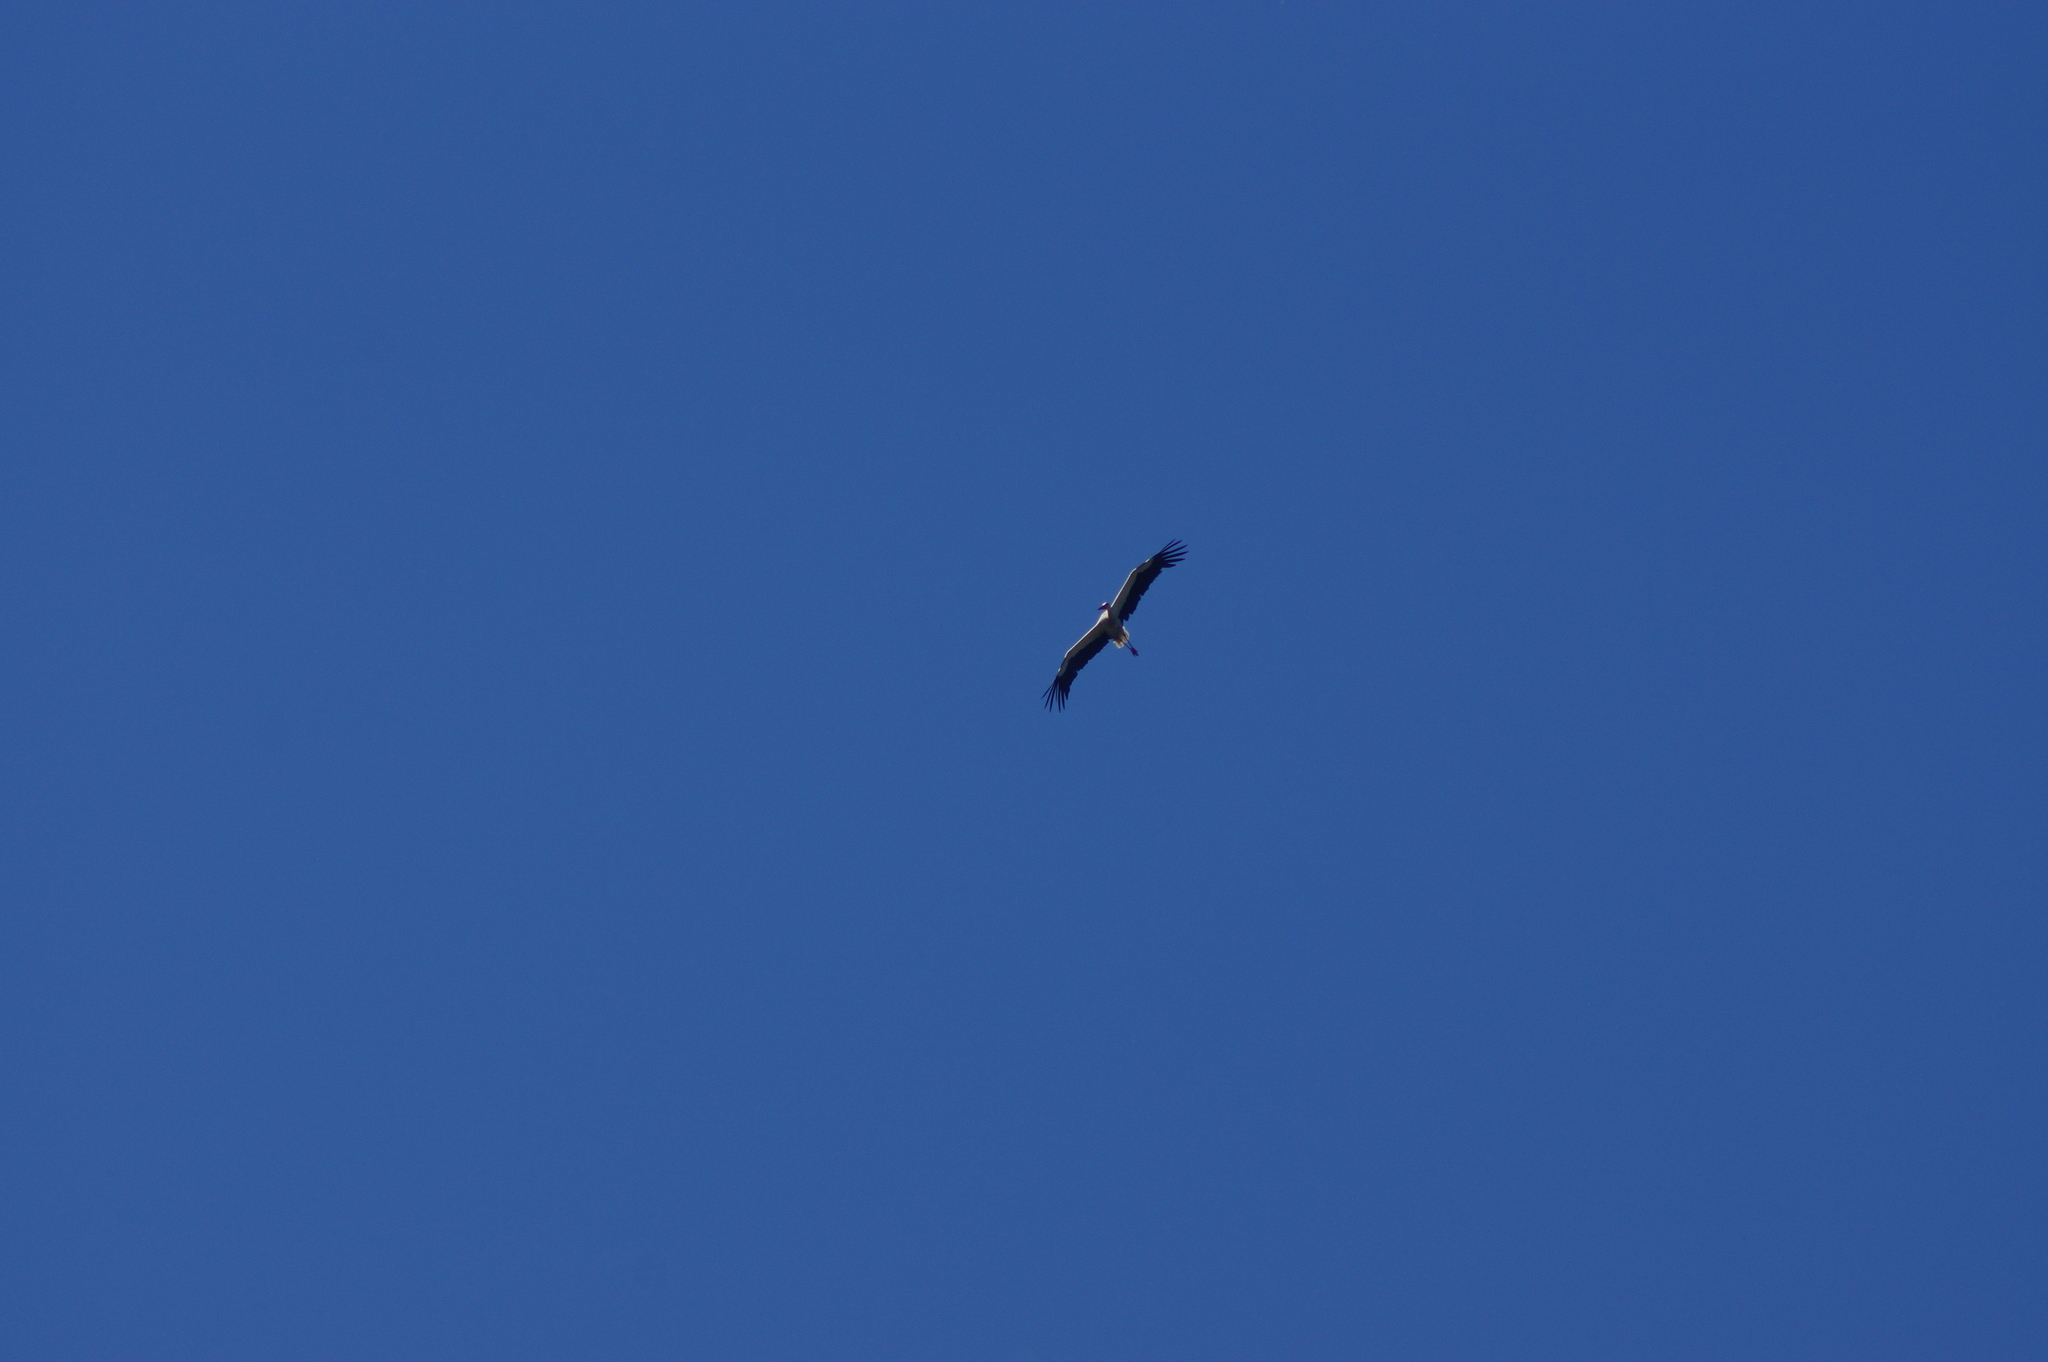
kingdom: Animalia
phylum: Chordata
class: Aves
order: Ciconiiformes
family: Ciconiidae
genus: Ciconia
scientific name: Ciconia ciconia
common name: White stork
